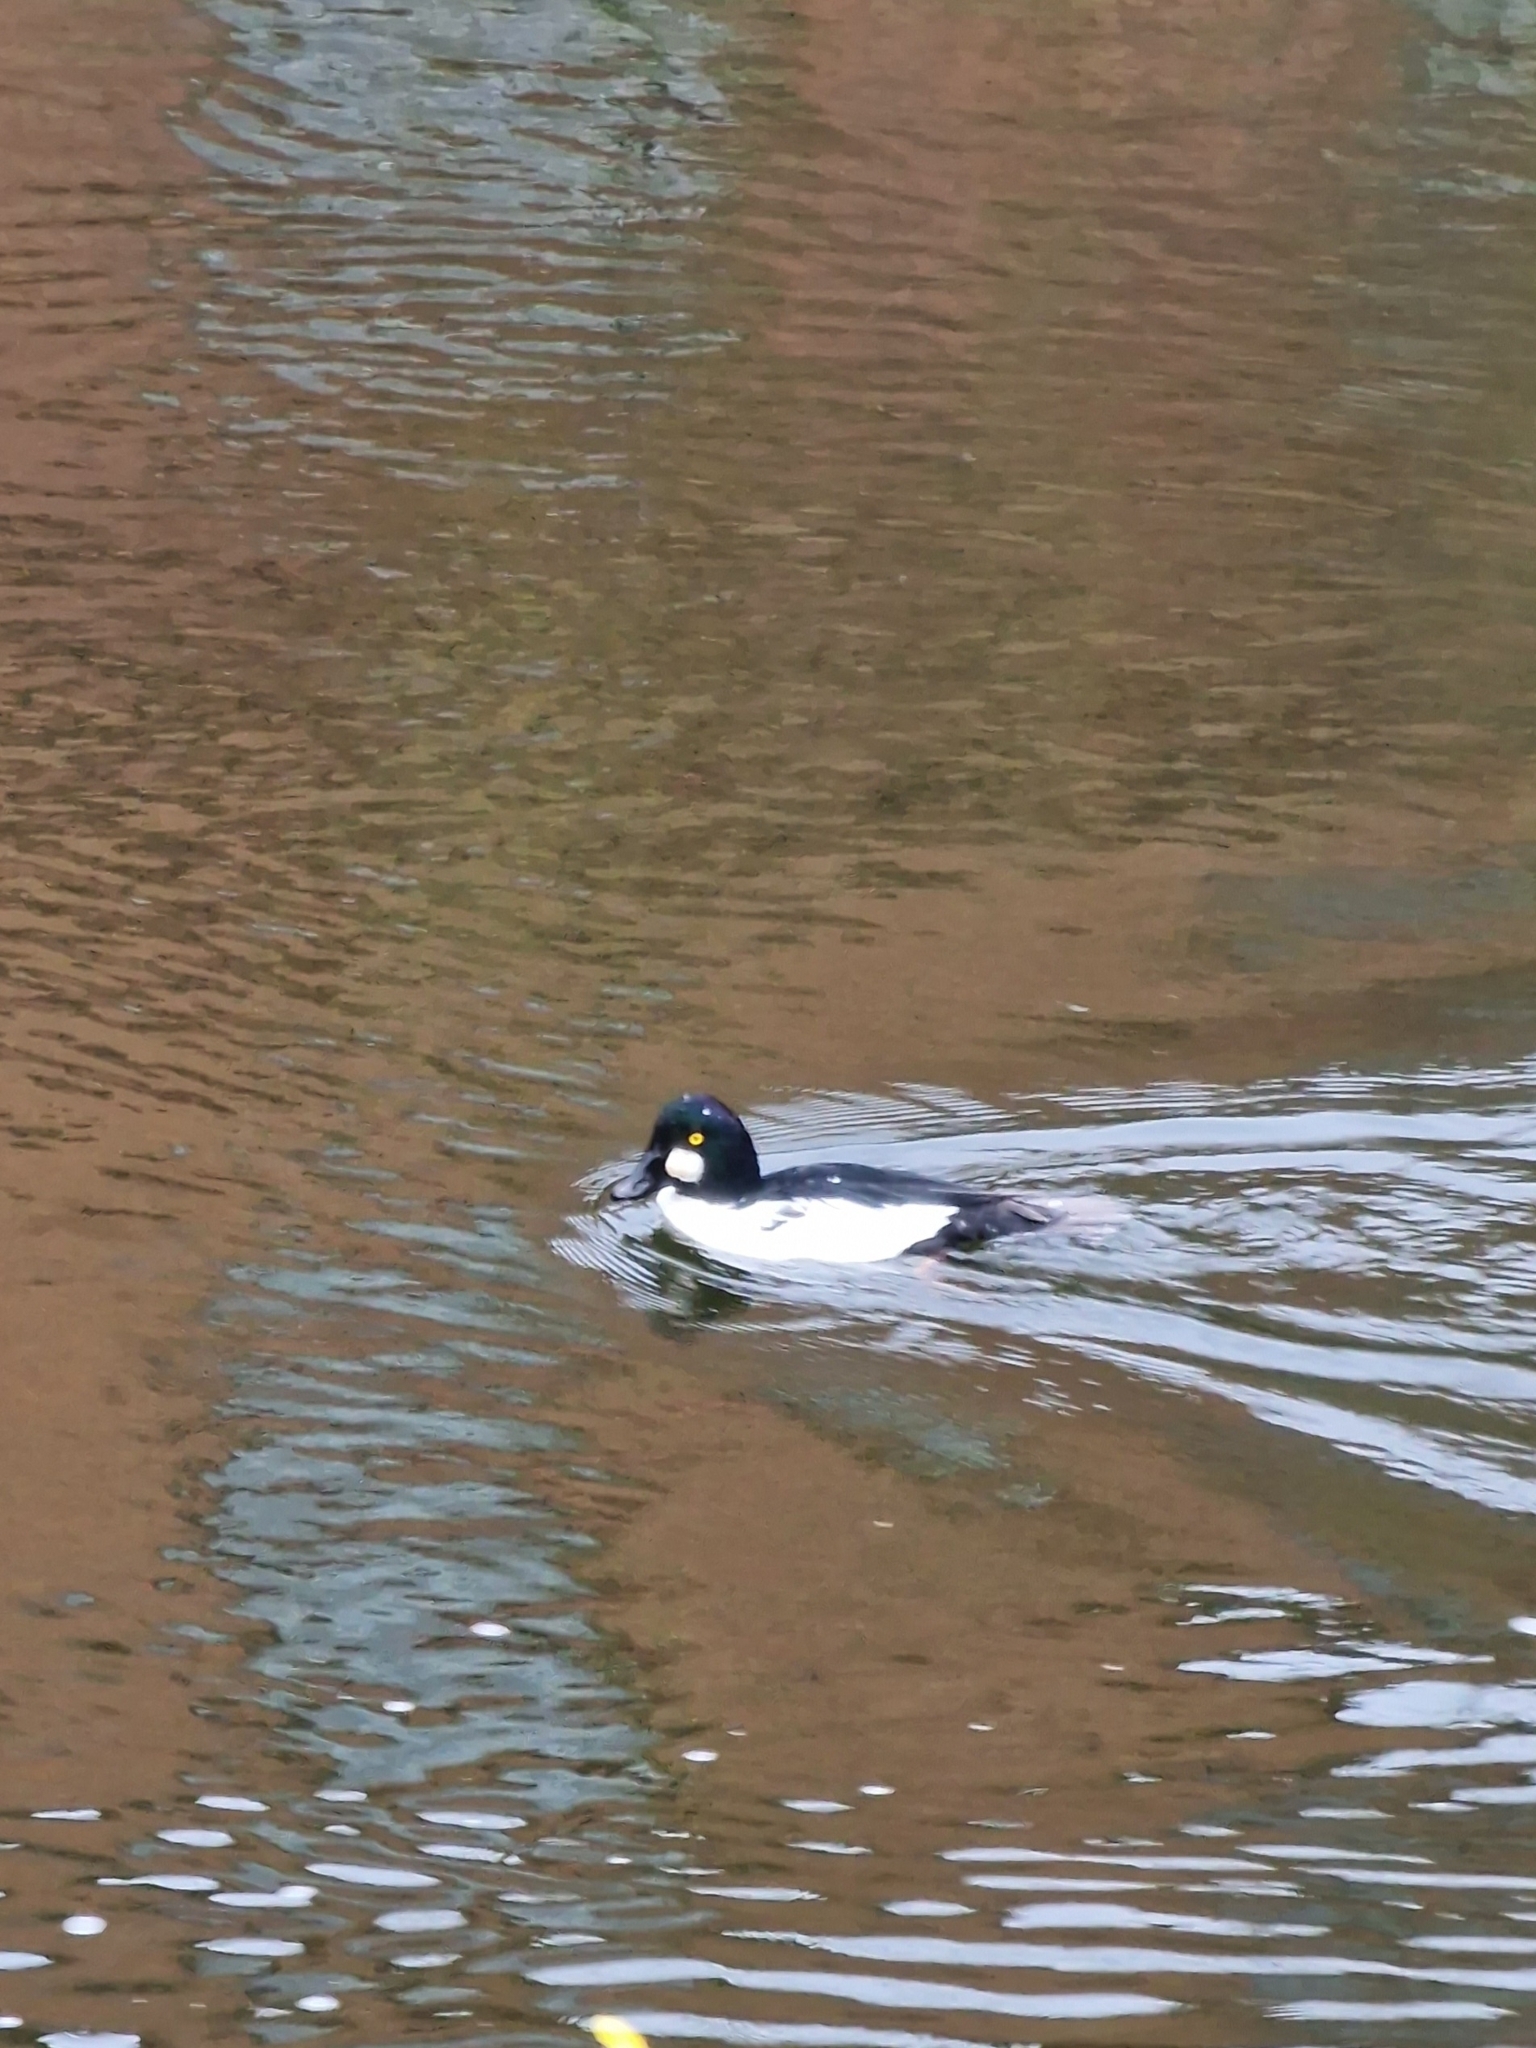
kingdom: Animalia
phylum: Chordata
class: Aves
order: Anseriformes
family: Anatidae
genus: Bucephala
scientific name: Bucephala clangula
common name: Common goldeneye
